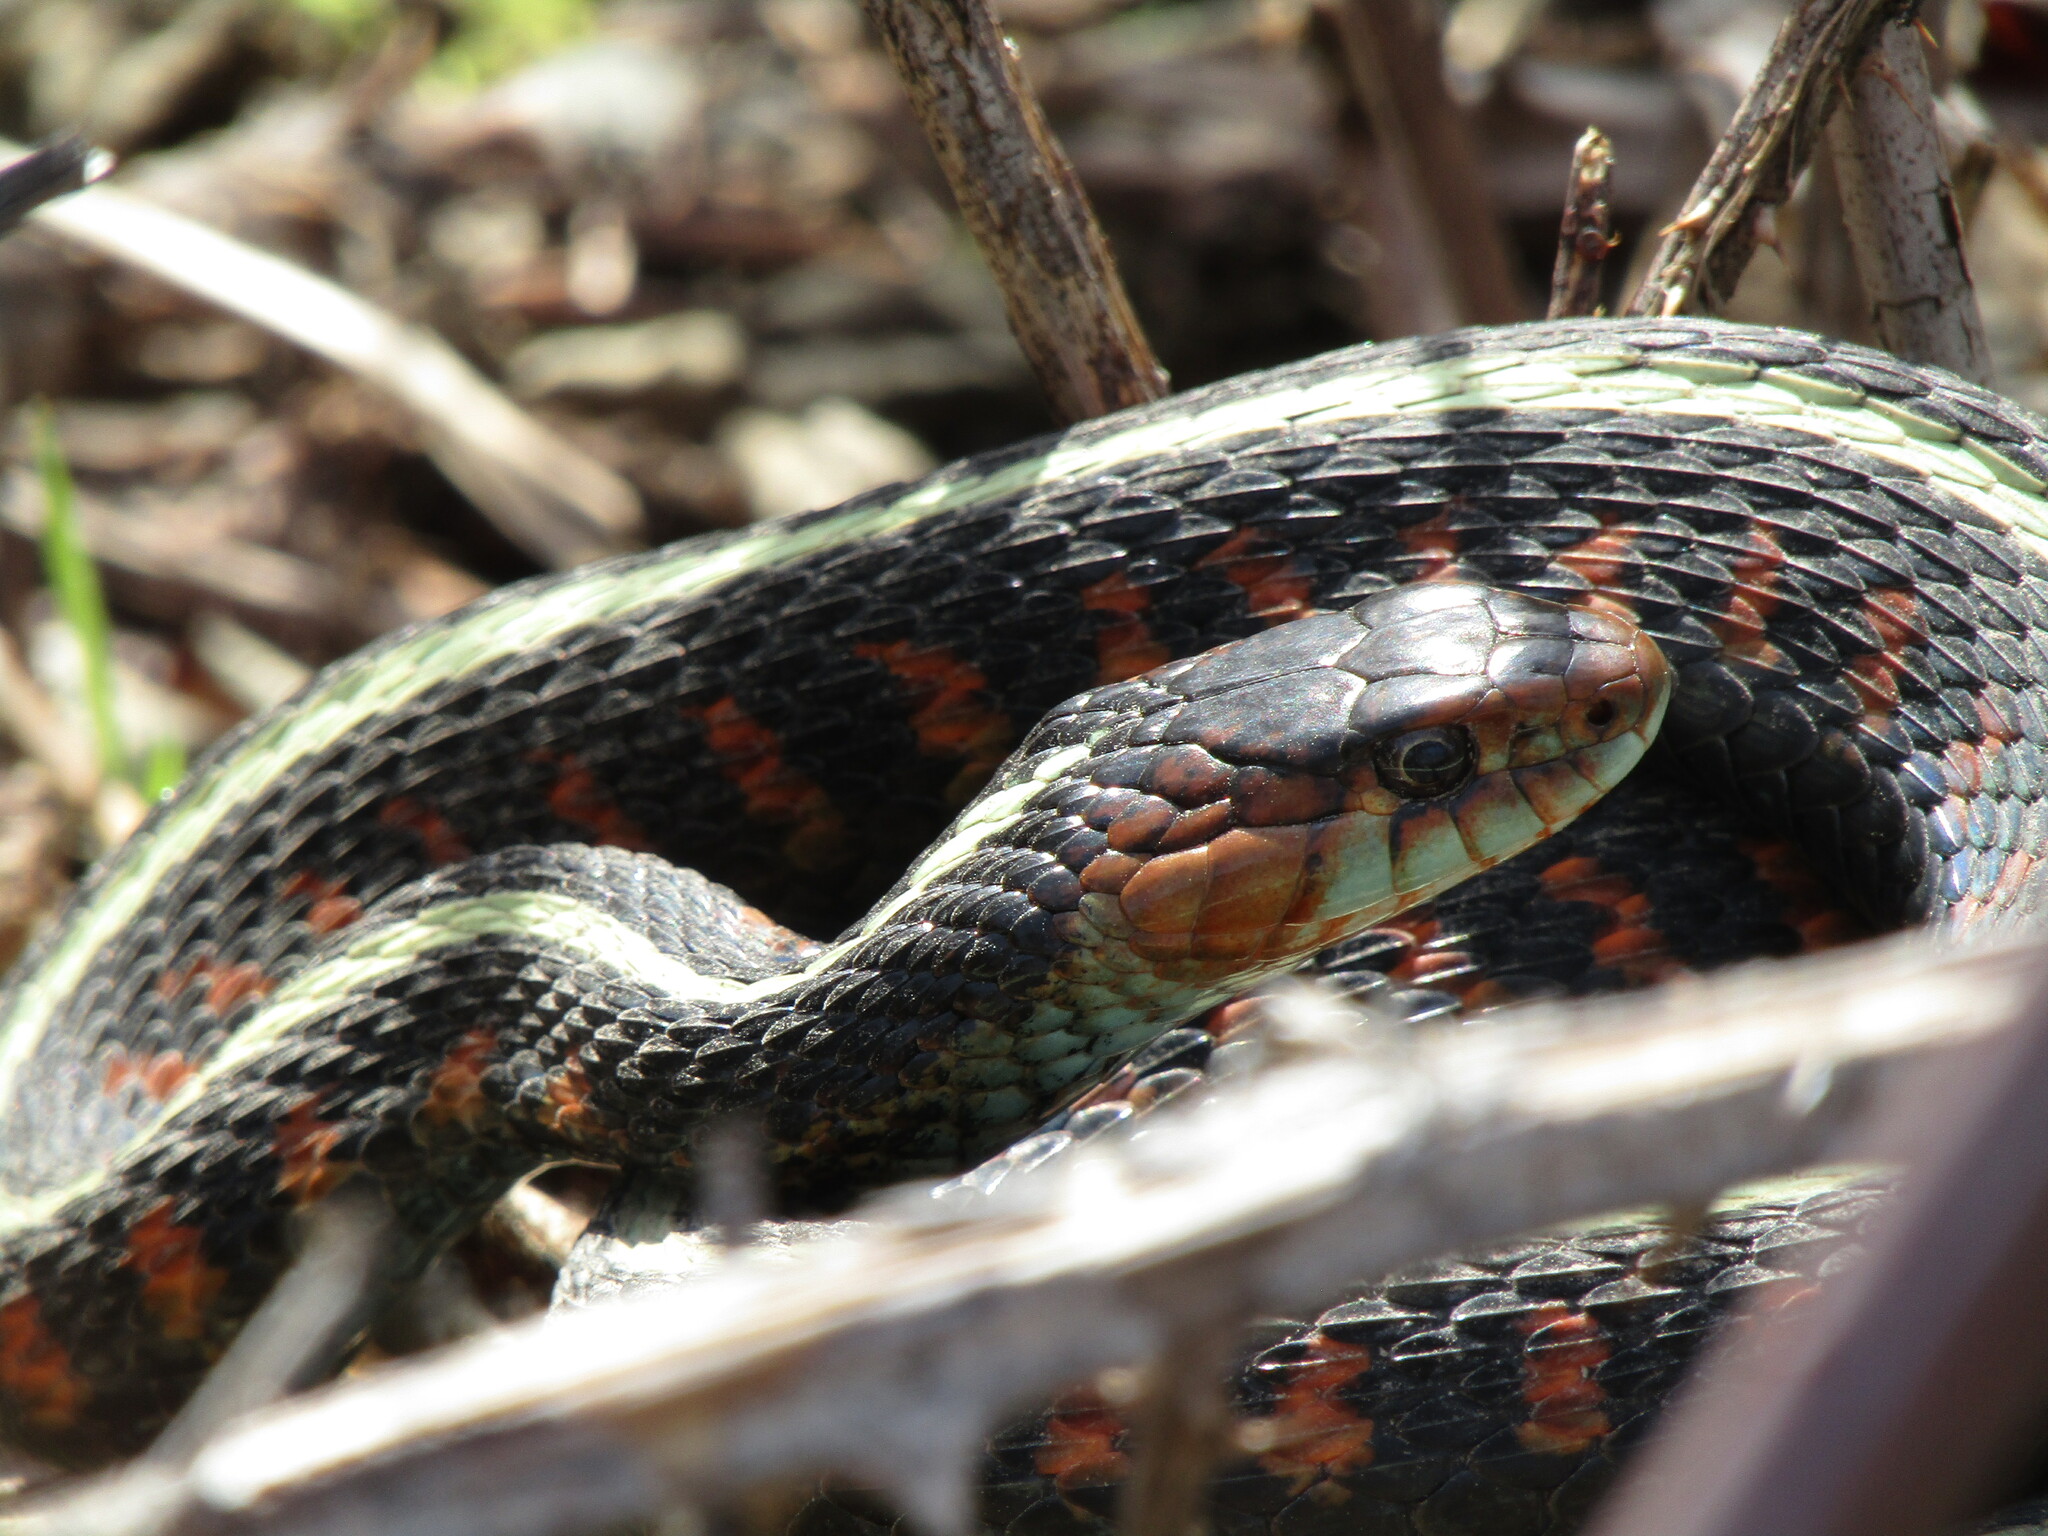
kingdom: Animalia
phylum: Chordata
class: Squamata
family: Colubridae
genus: Thamnophis
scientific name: Thamnophis sirtalis
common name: Common garter snake
